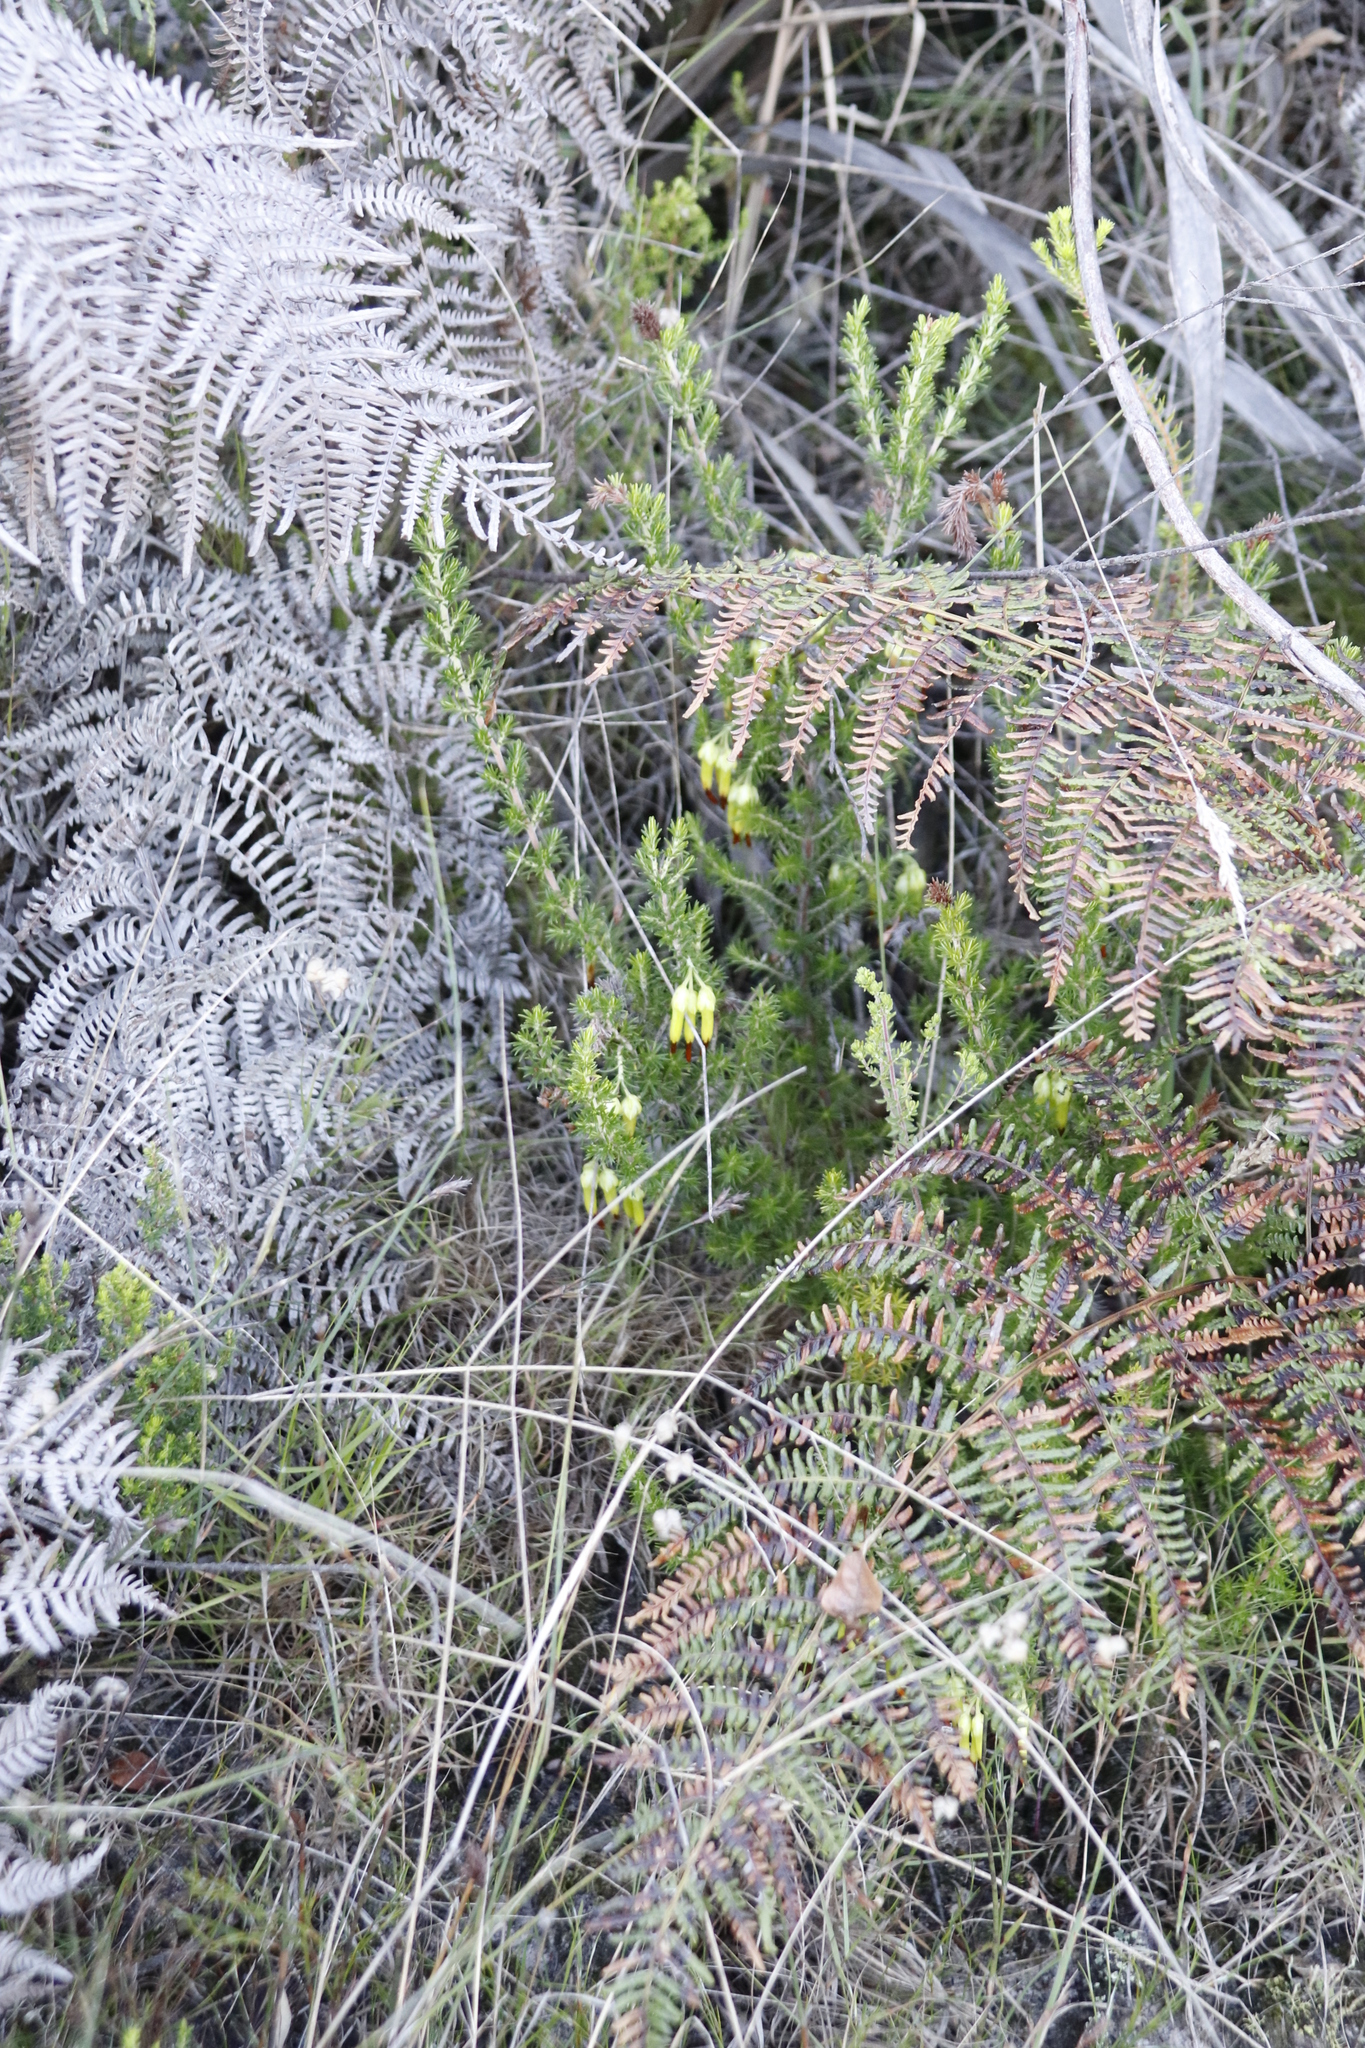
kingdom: Plantae
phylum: Tracheophyta
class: Magnoliopsida
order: Ericales
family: Ericaceae
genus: Erica
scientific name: Erica coccinea
